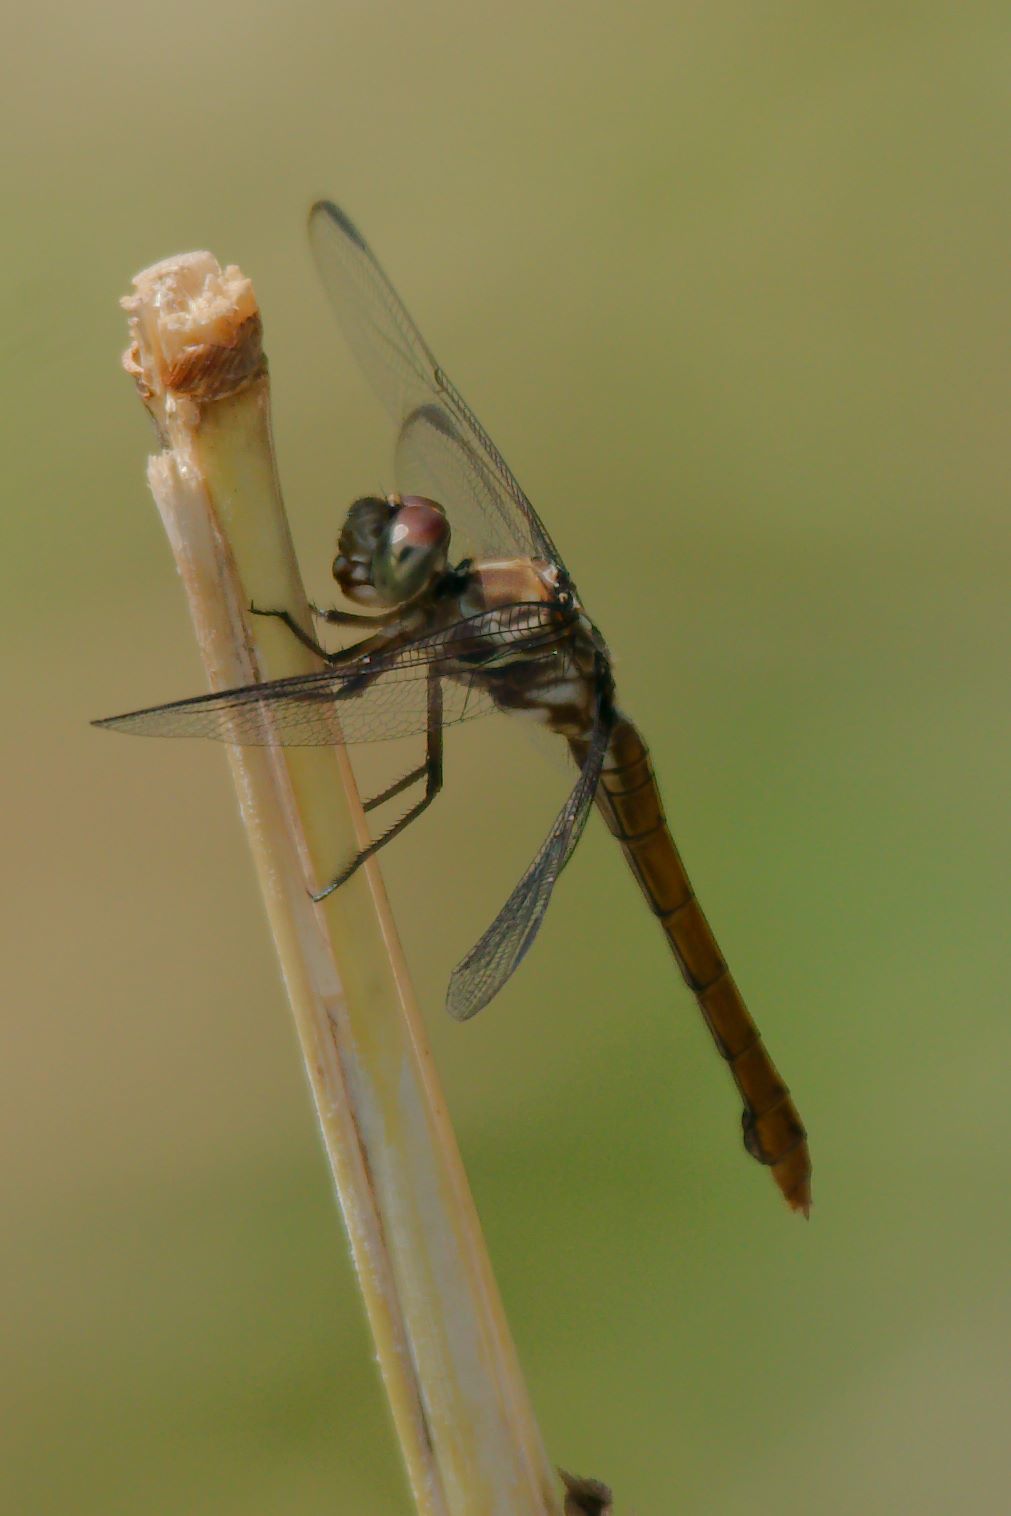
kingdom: Animalia
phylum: Arthropoda
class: Insecta
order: Odonata
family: Libellulidae
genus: Orthemis
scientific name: Orthemis ferruginea
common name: Roseate skimmer
